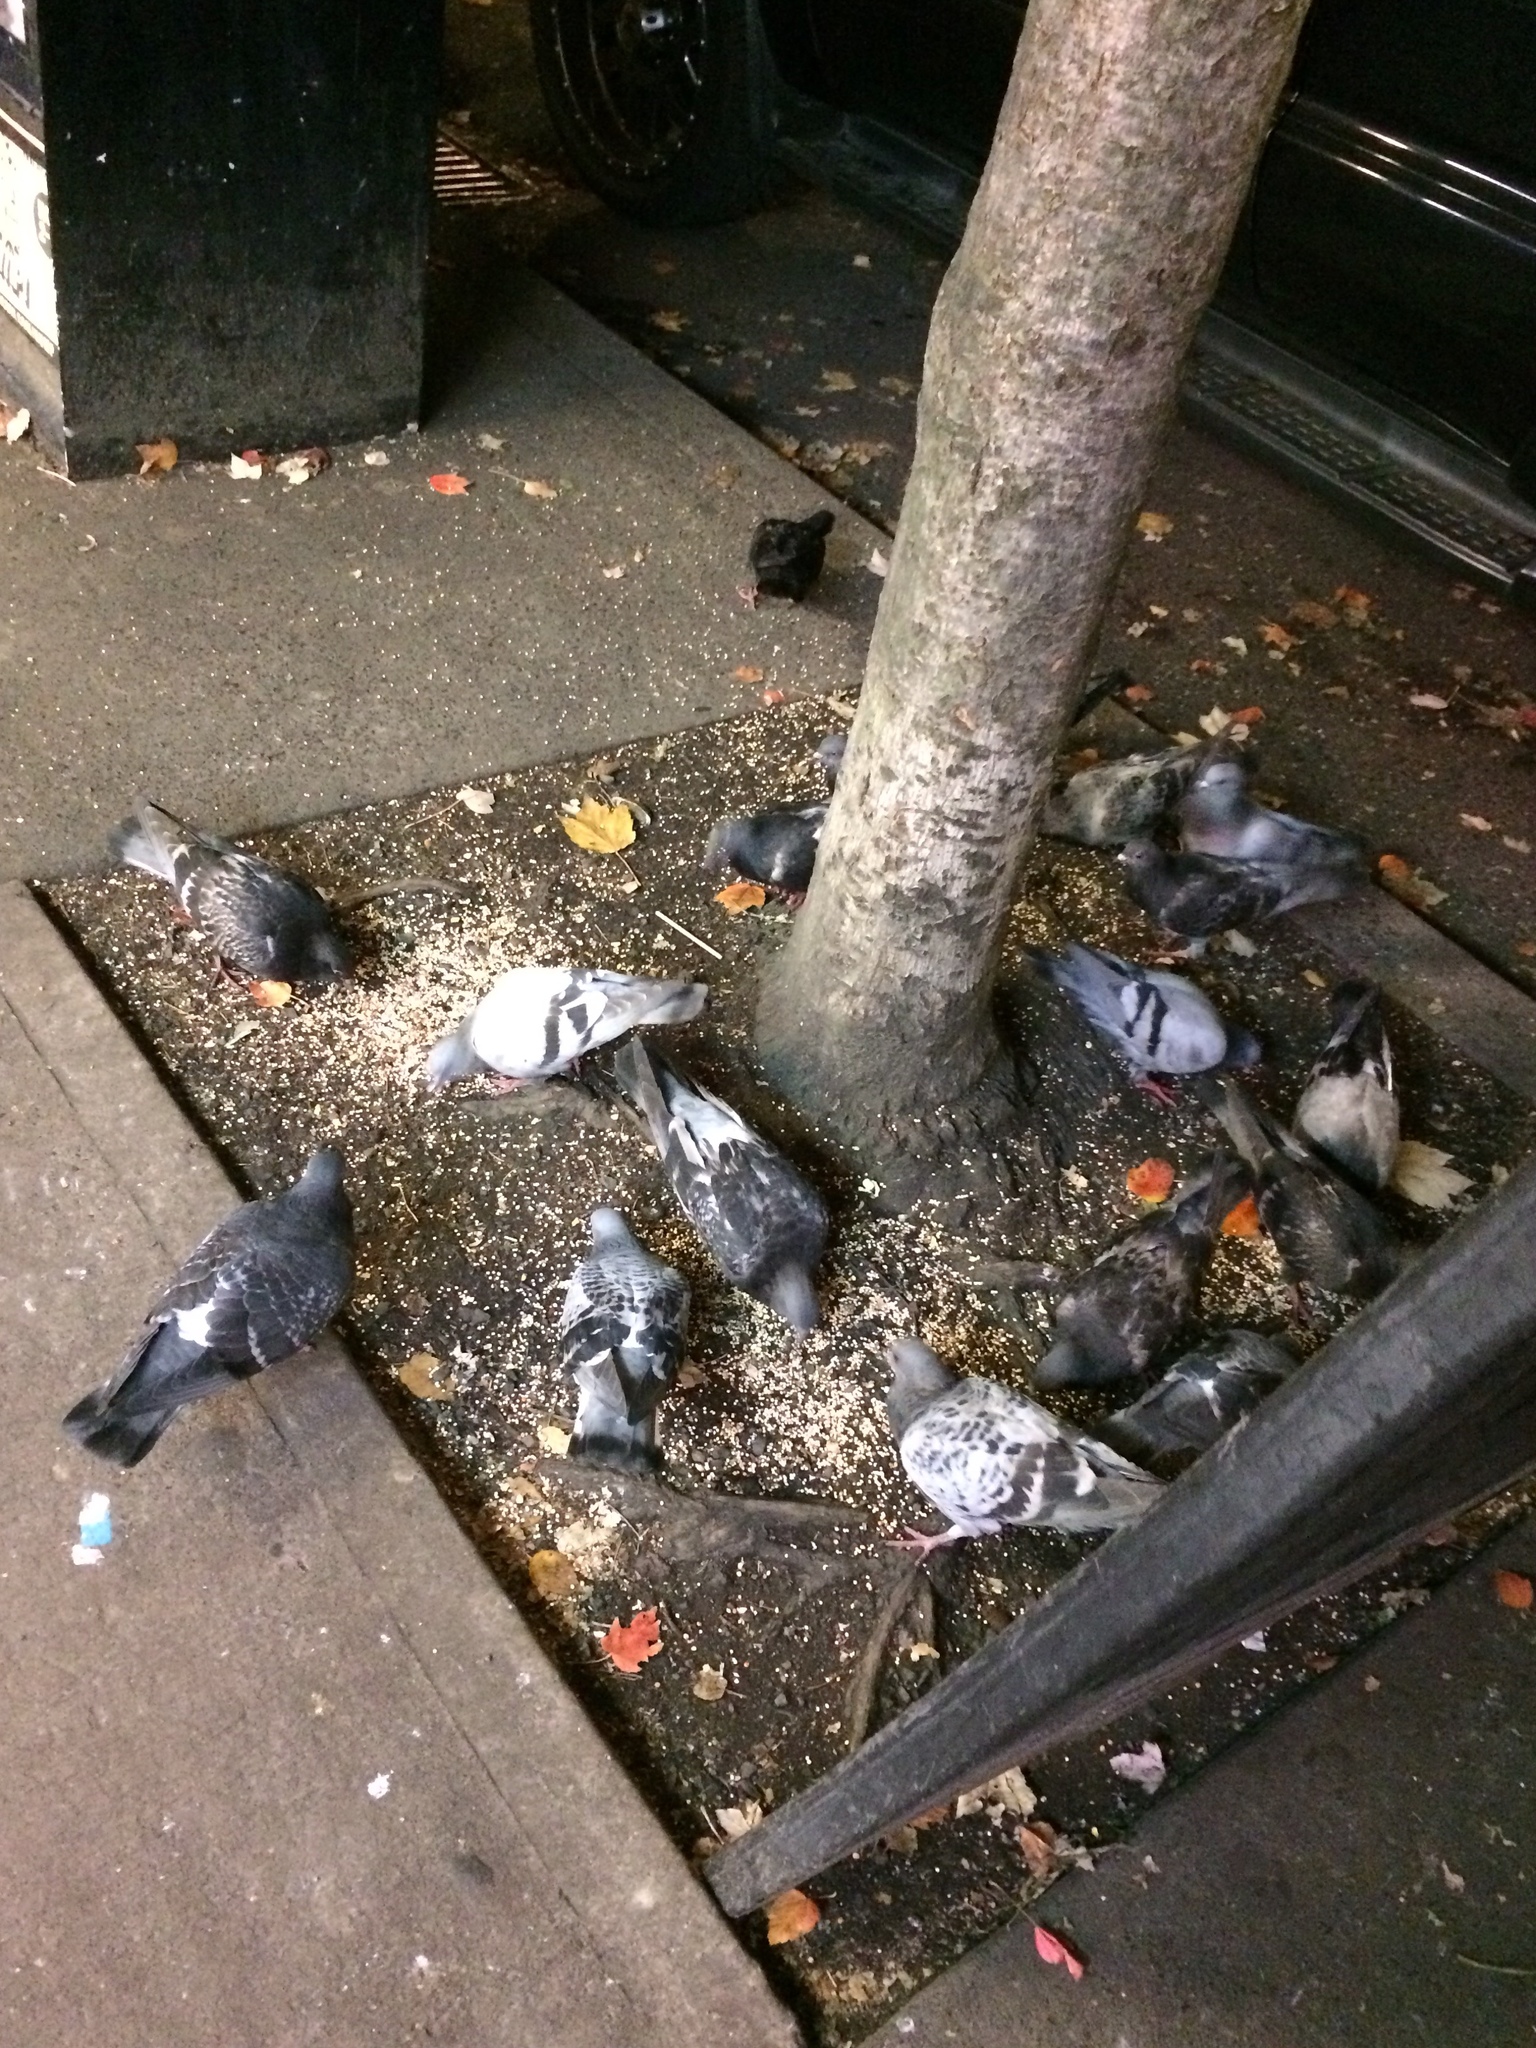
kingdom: Animalia
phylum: Chordata
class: Aves
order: Columbiformes
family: Columbidae
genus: Columba
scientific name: Columba livia
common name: Rock pigeon
